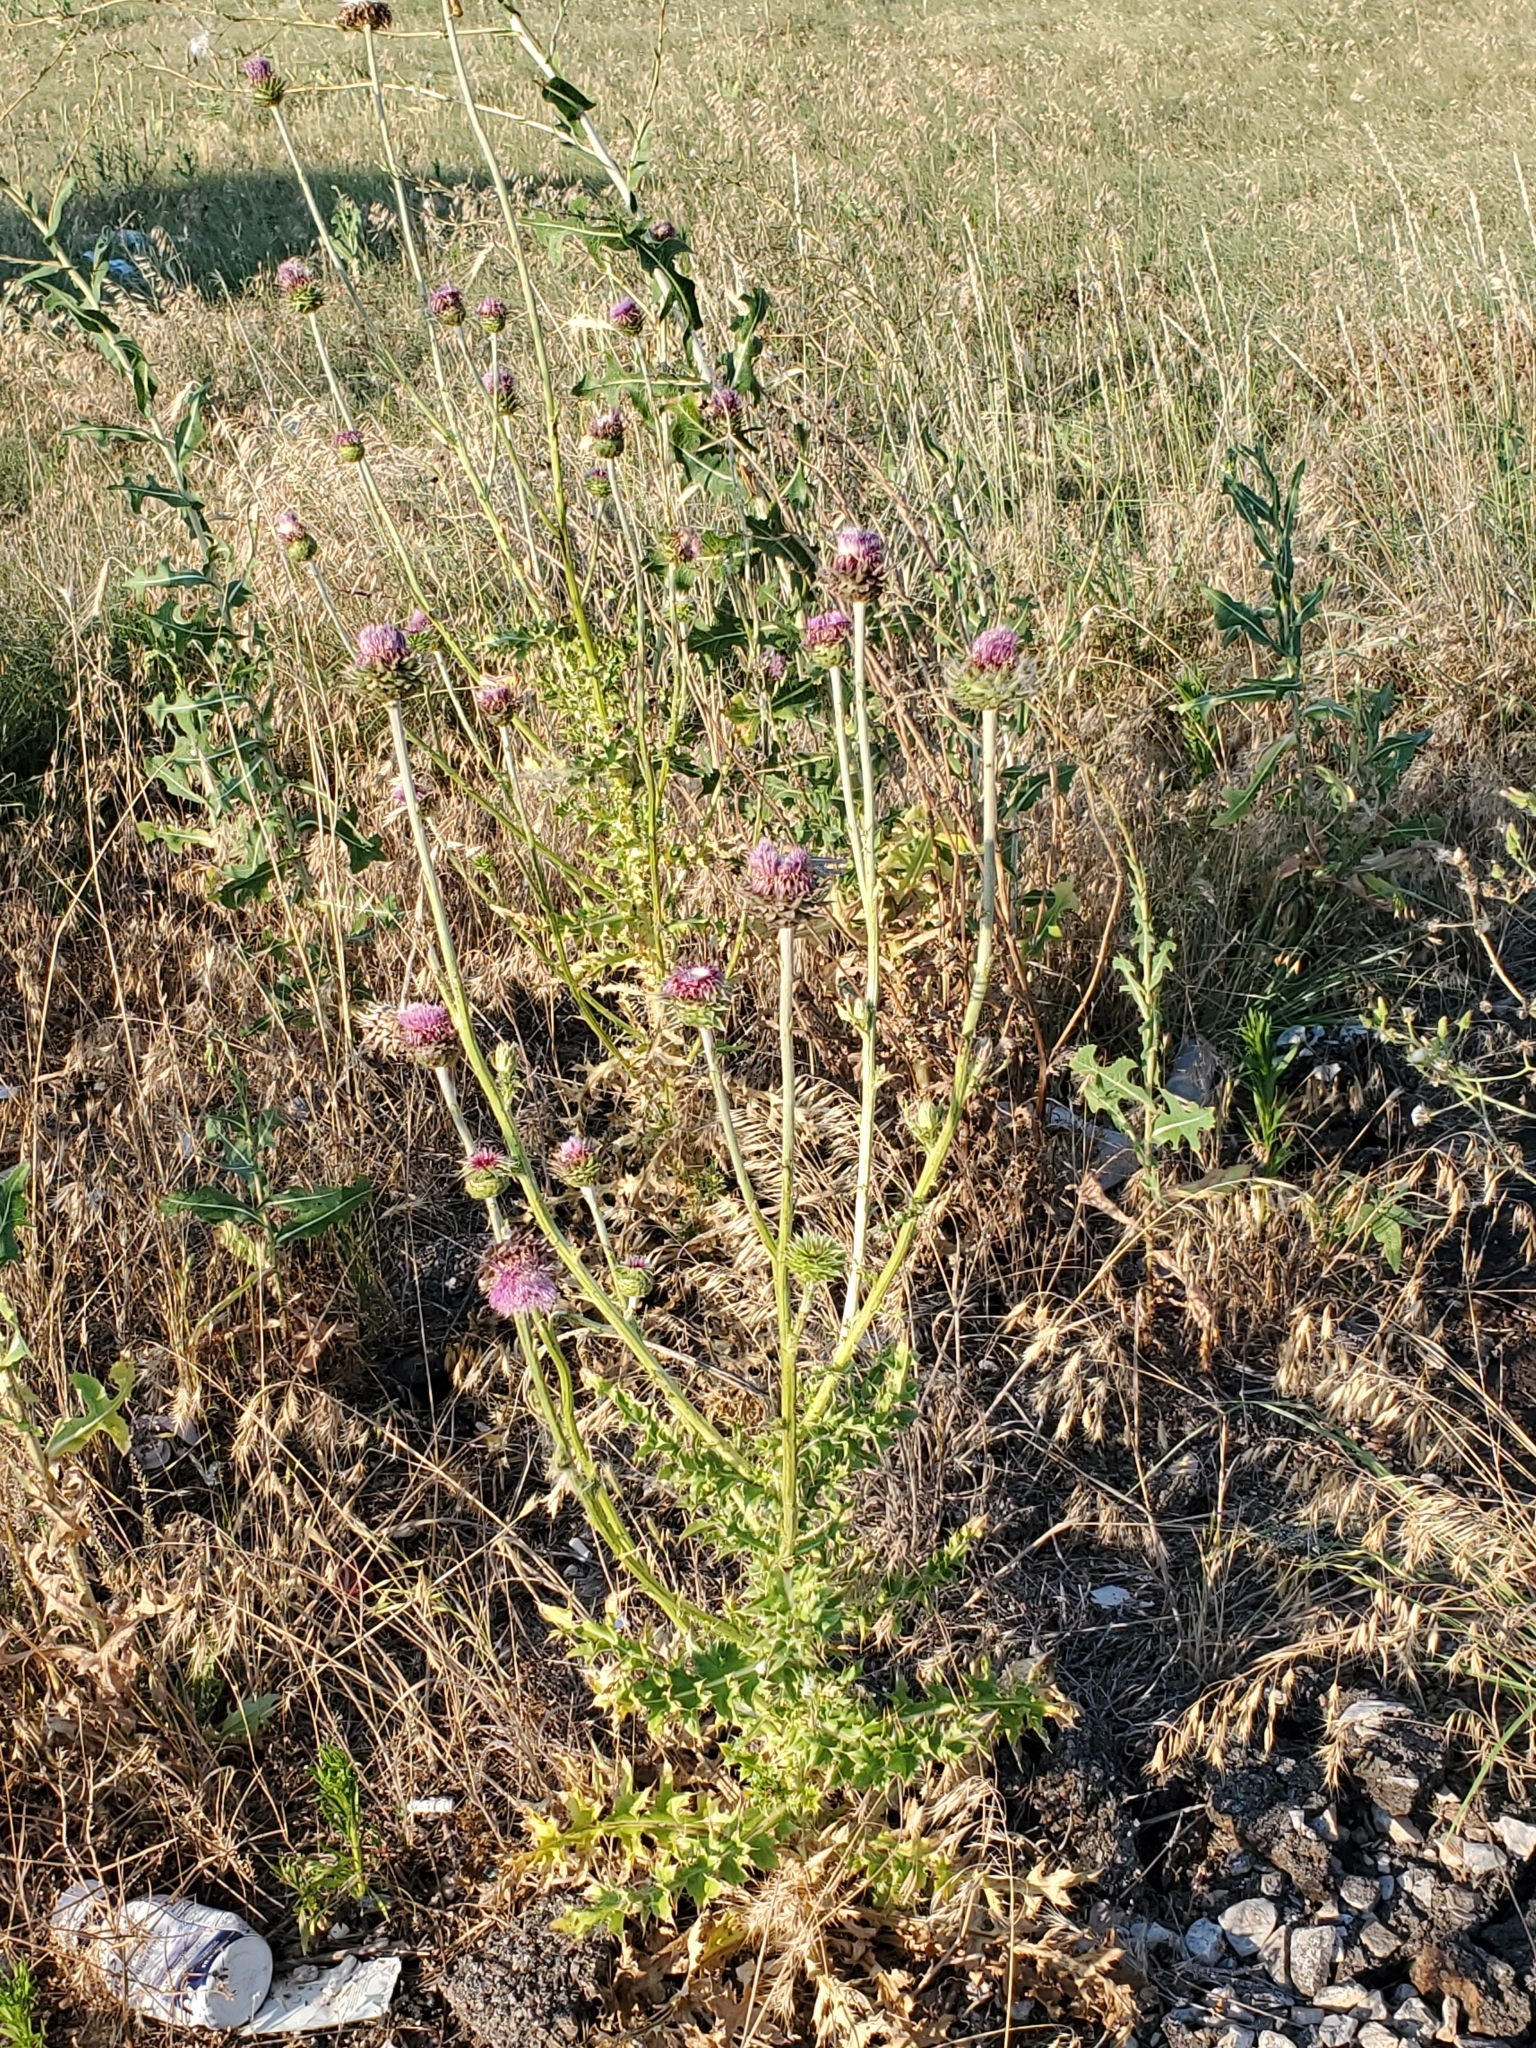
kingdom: Plantae
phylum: Tracheophyta
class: Magnoliopsida
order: Asterales
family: Asteraceae
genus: Carduus
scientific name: Carduus nutans
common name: Musk thistle
